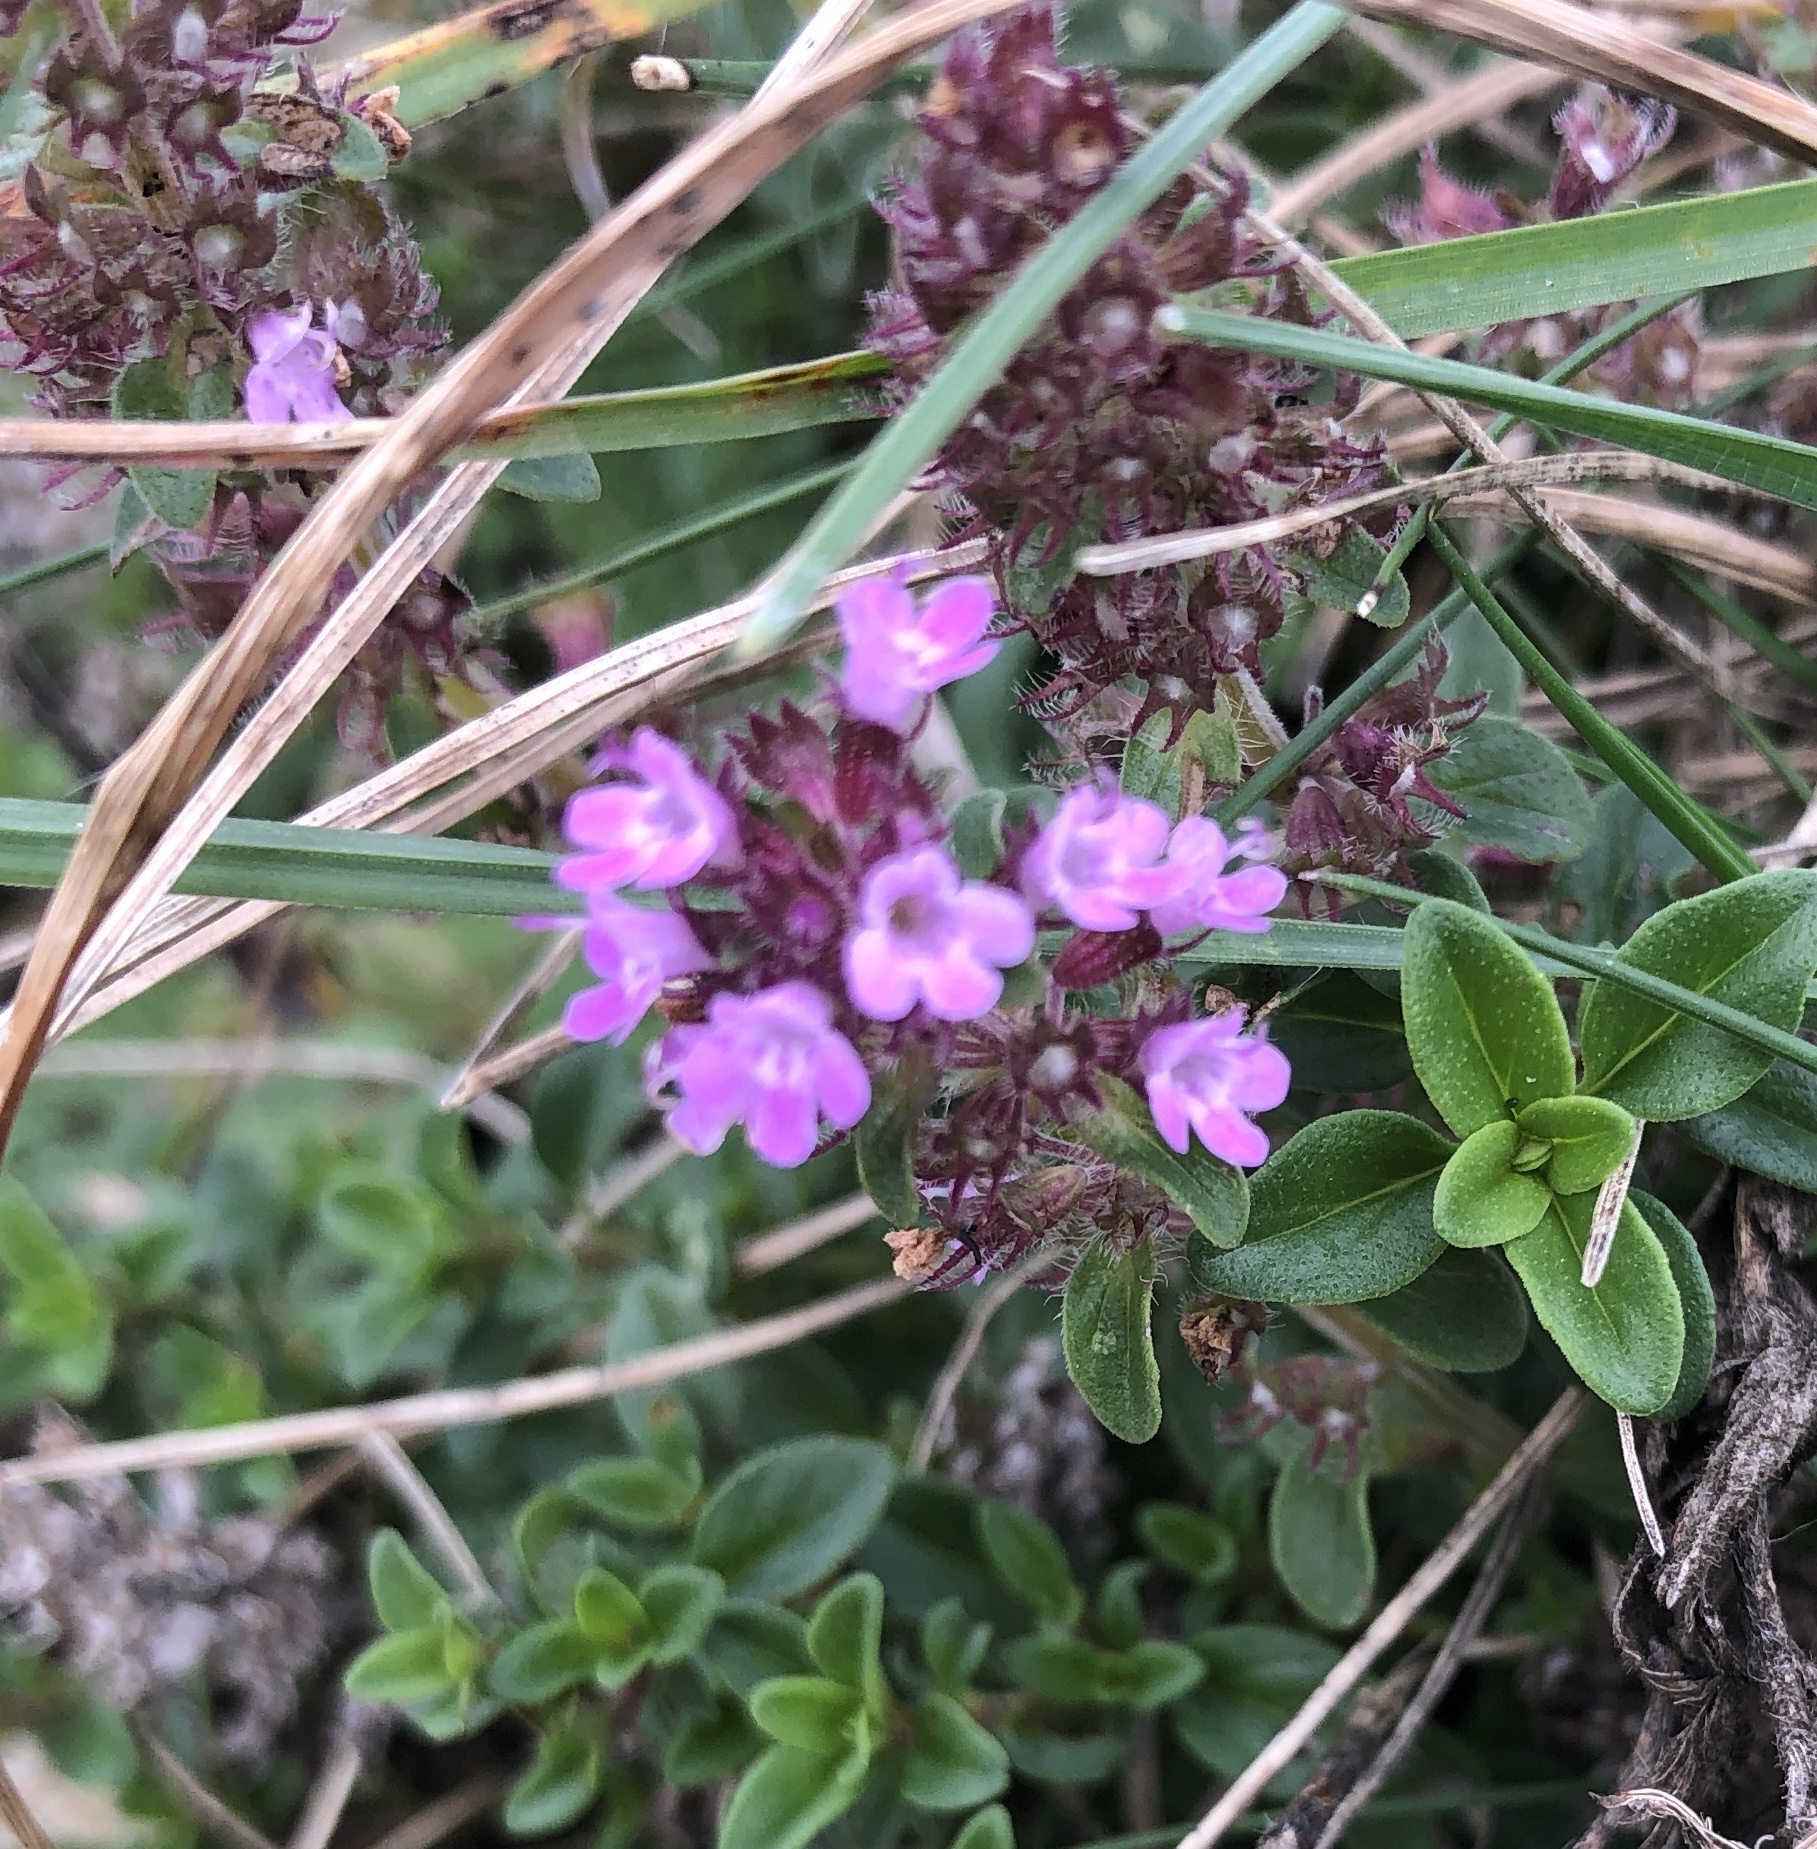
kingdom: Plantae
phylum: Tracheophyta
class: Magnoliopsida
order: Lamiales
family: Lamiaceae
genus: Thymus
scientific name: Thymus pulegioides
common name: Large thyme
